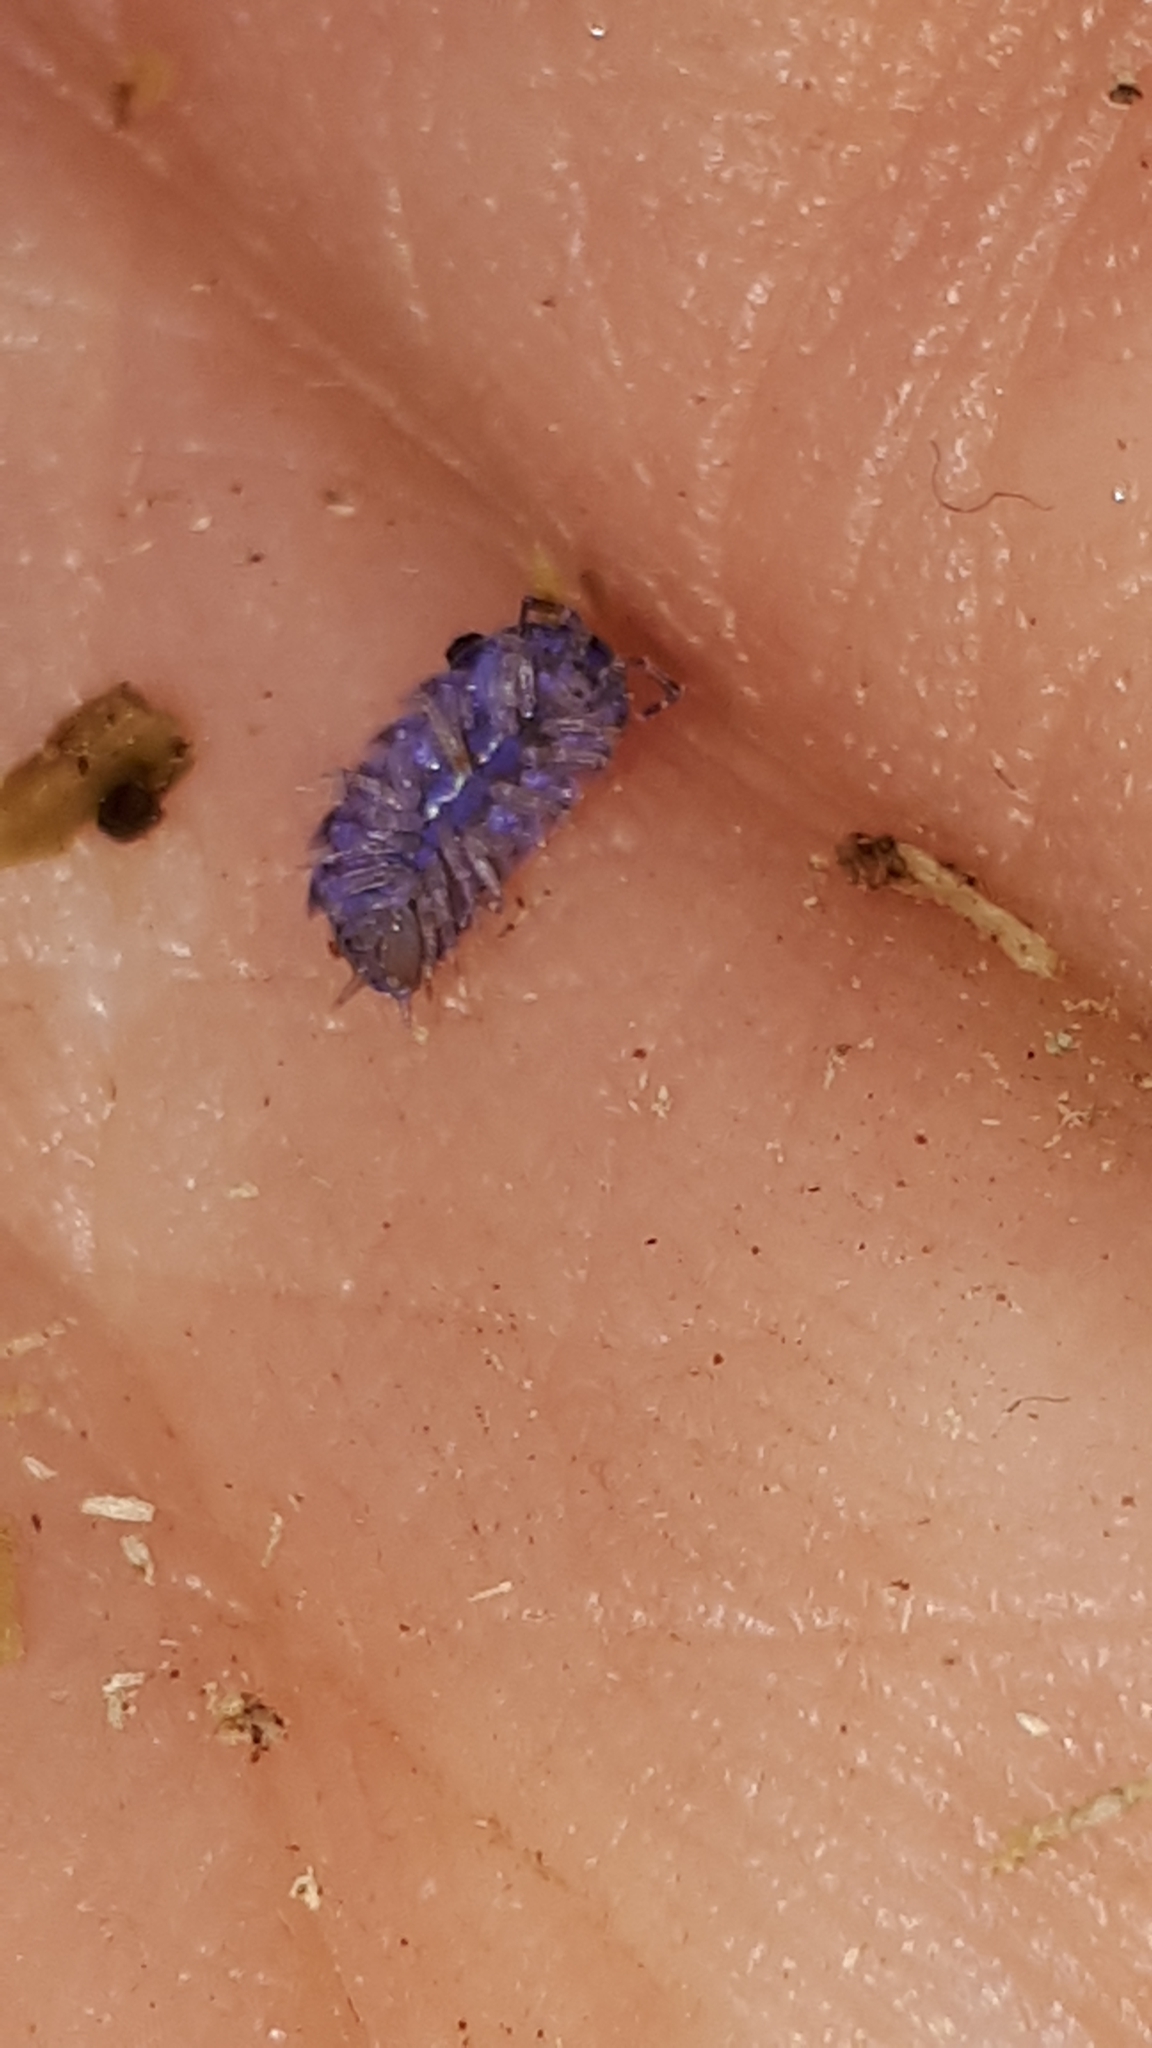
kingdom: Viruses
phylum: Nucleocytoviricota
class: Megaviricetes
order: Pimascovirales
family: Iridoviridae
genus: Iridovirus
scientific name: Iridovirus Invertebrate iridescent virus 31
